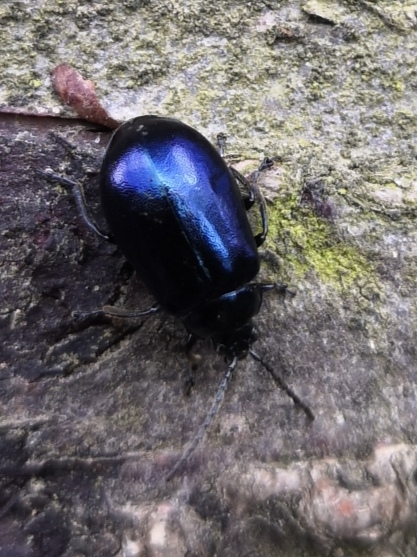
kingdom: Animalia
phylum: Arthropoda
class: Insecta
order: Coleoptera
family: Chrysomelidae
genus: Agelastica
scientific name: Agelastica alni
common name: Alder leaf beetle
